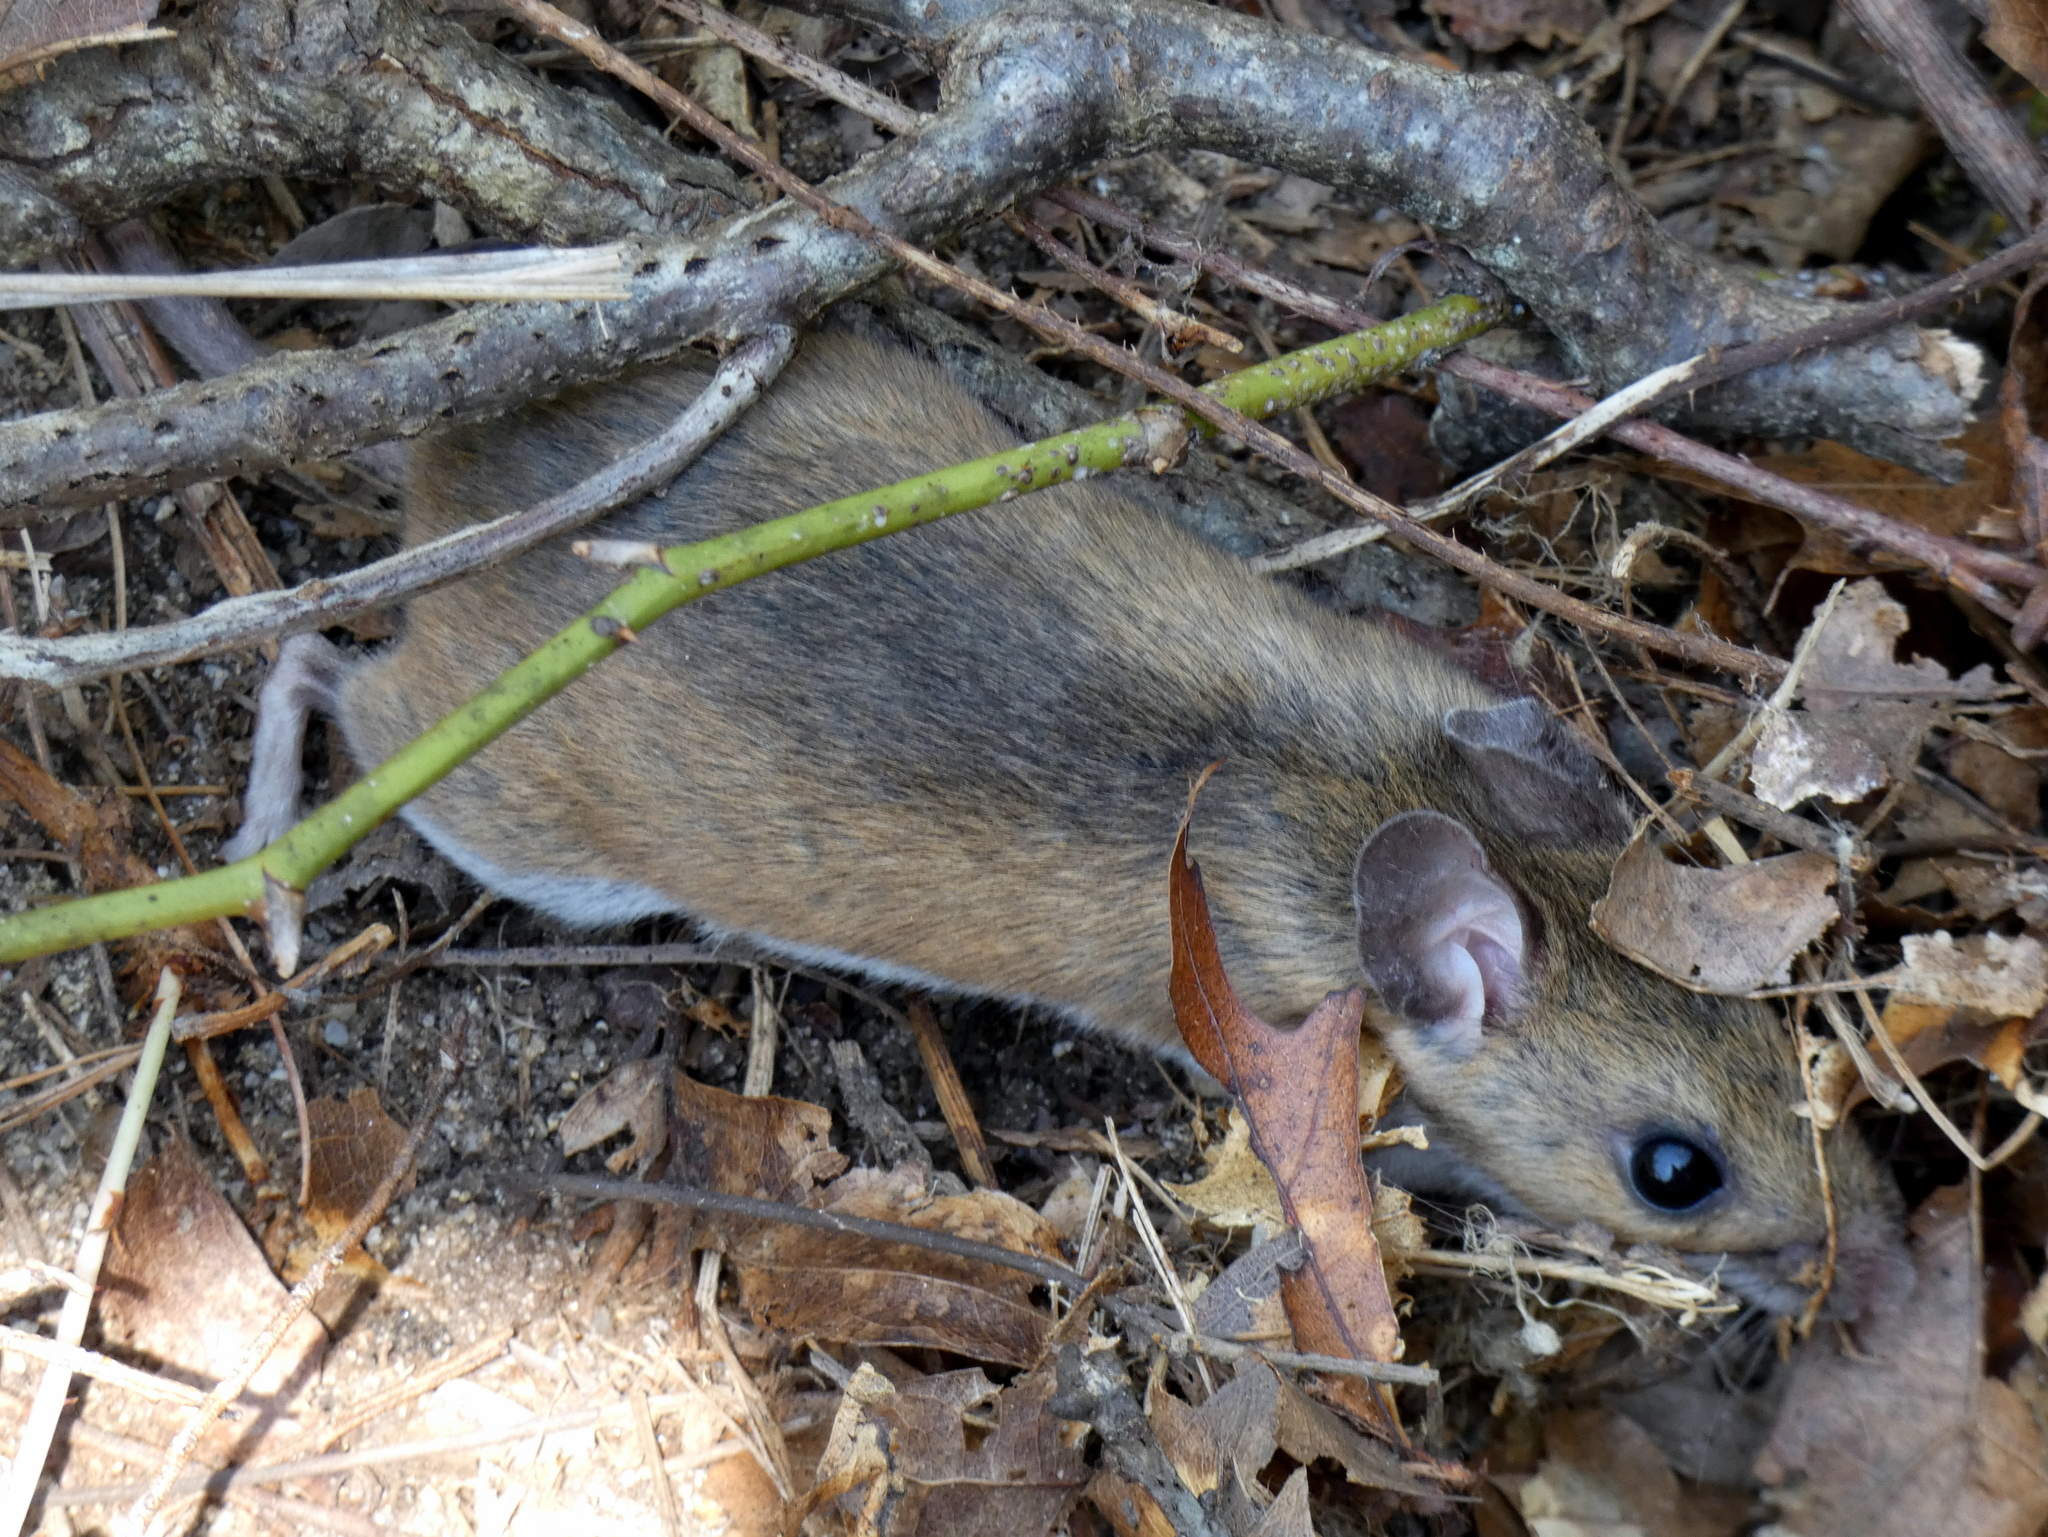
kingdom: Animalia
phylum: Chordata
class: Mammalia
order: Rodentia
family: Cricetidae
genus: Peromyscus
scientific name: Peromyscus leucopus
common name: White-footed deermouse
